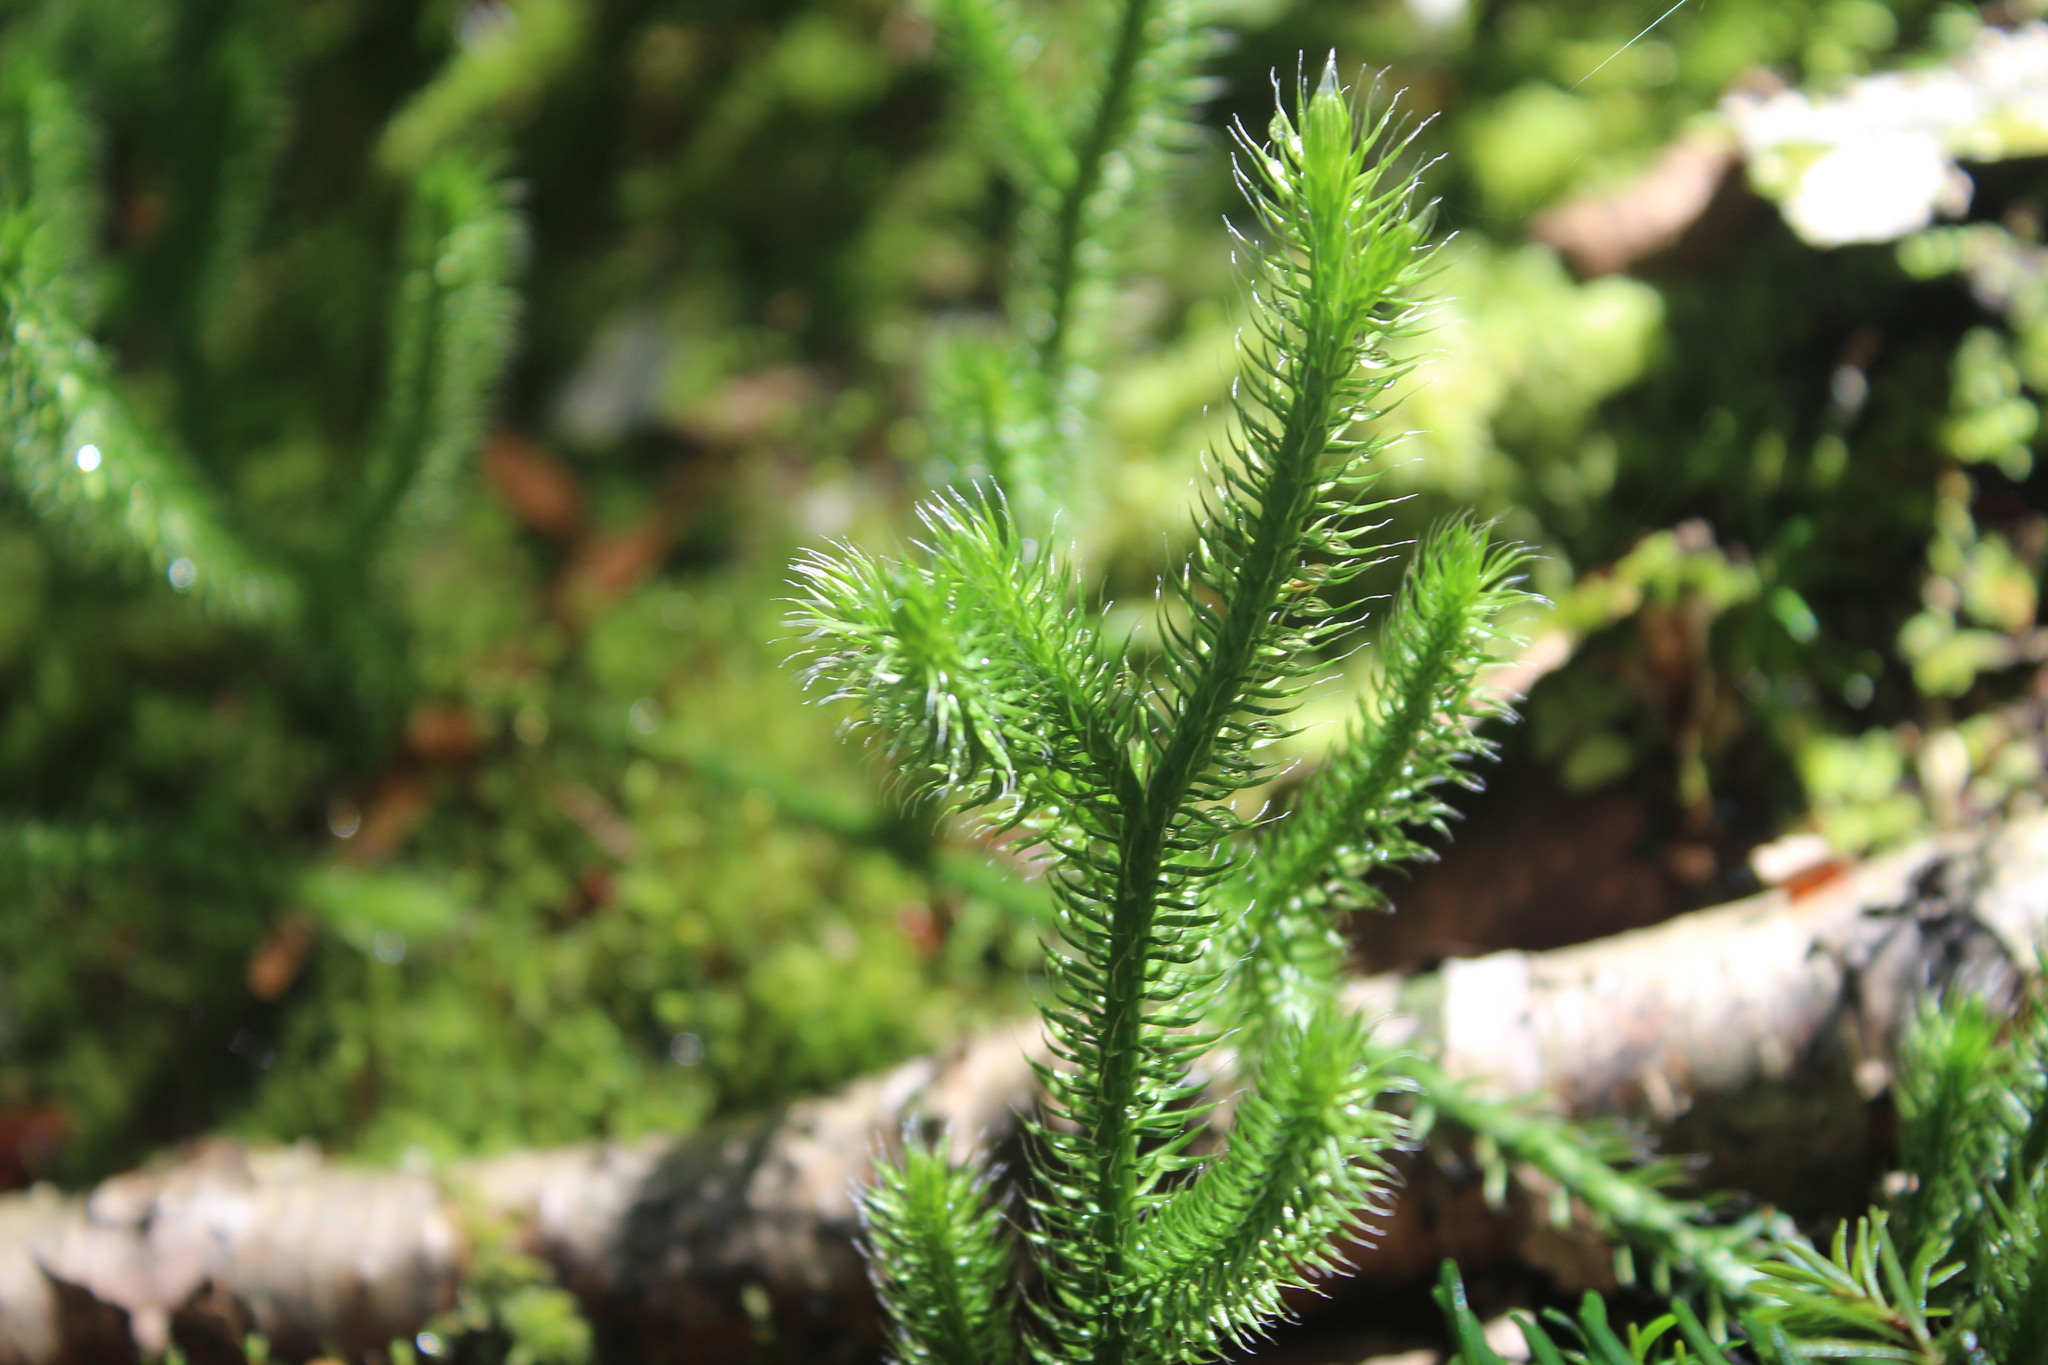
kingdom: Plantae
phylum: Tracheophyta
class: Lycopodiopsida
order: Lycopodiales
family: Lycopodiaceae
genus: Lycopodium
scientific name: Lycopodium clavatum
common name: Stag's-horn clubmoss
